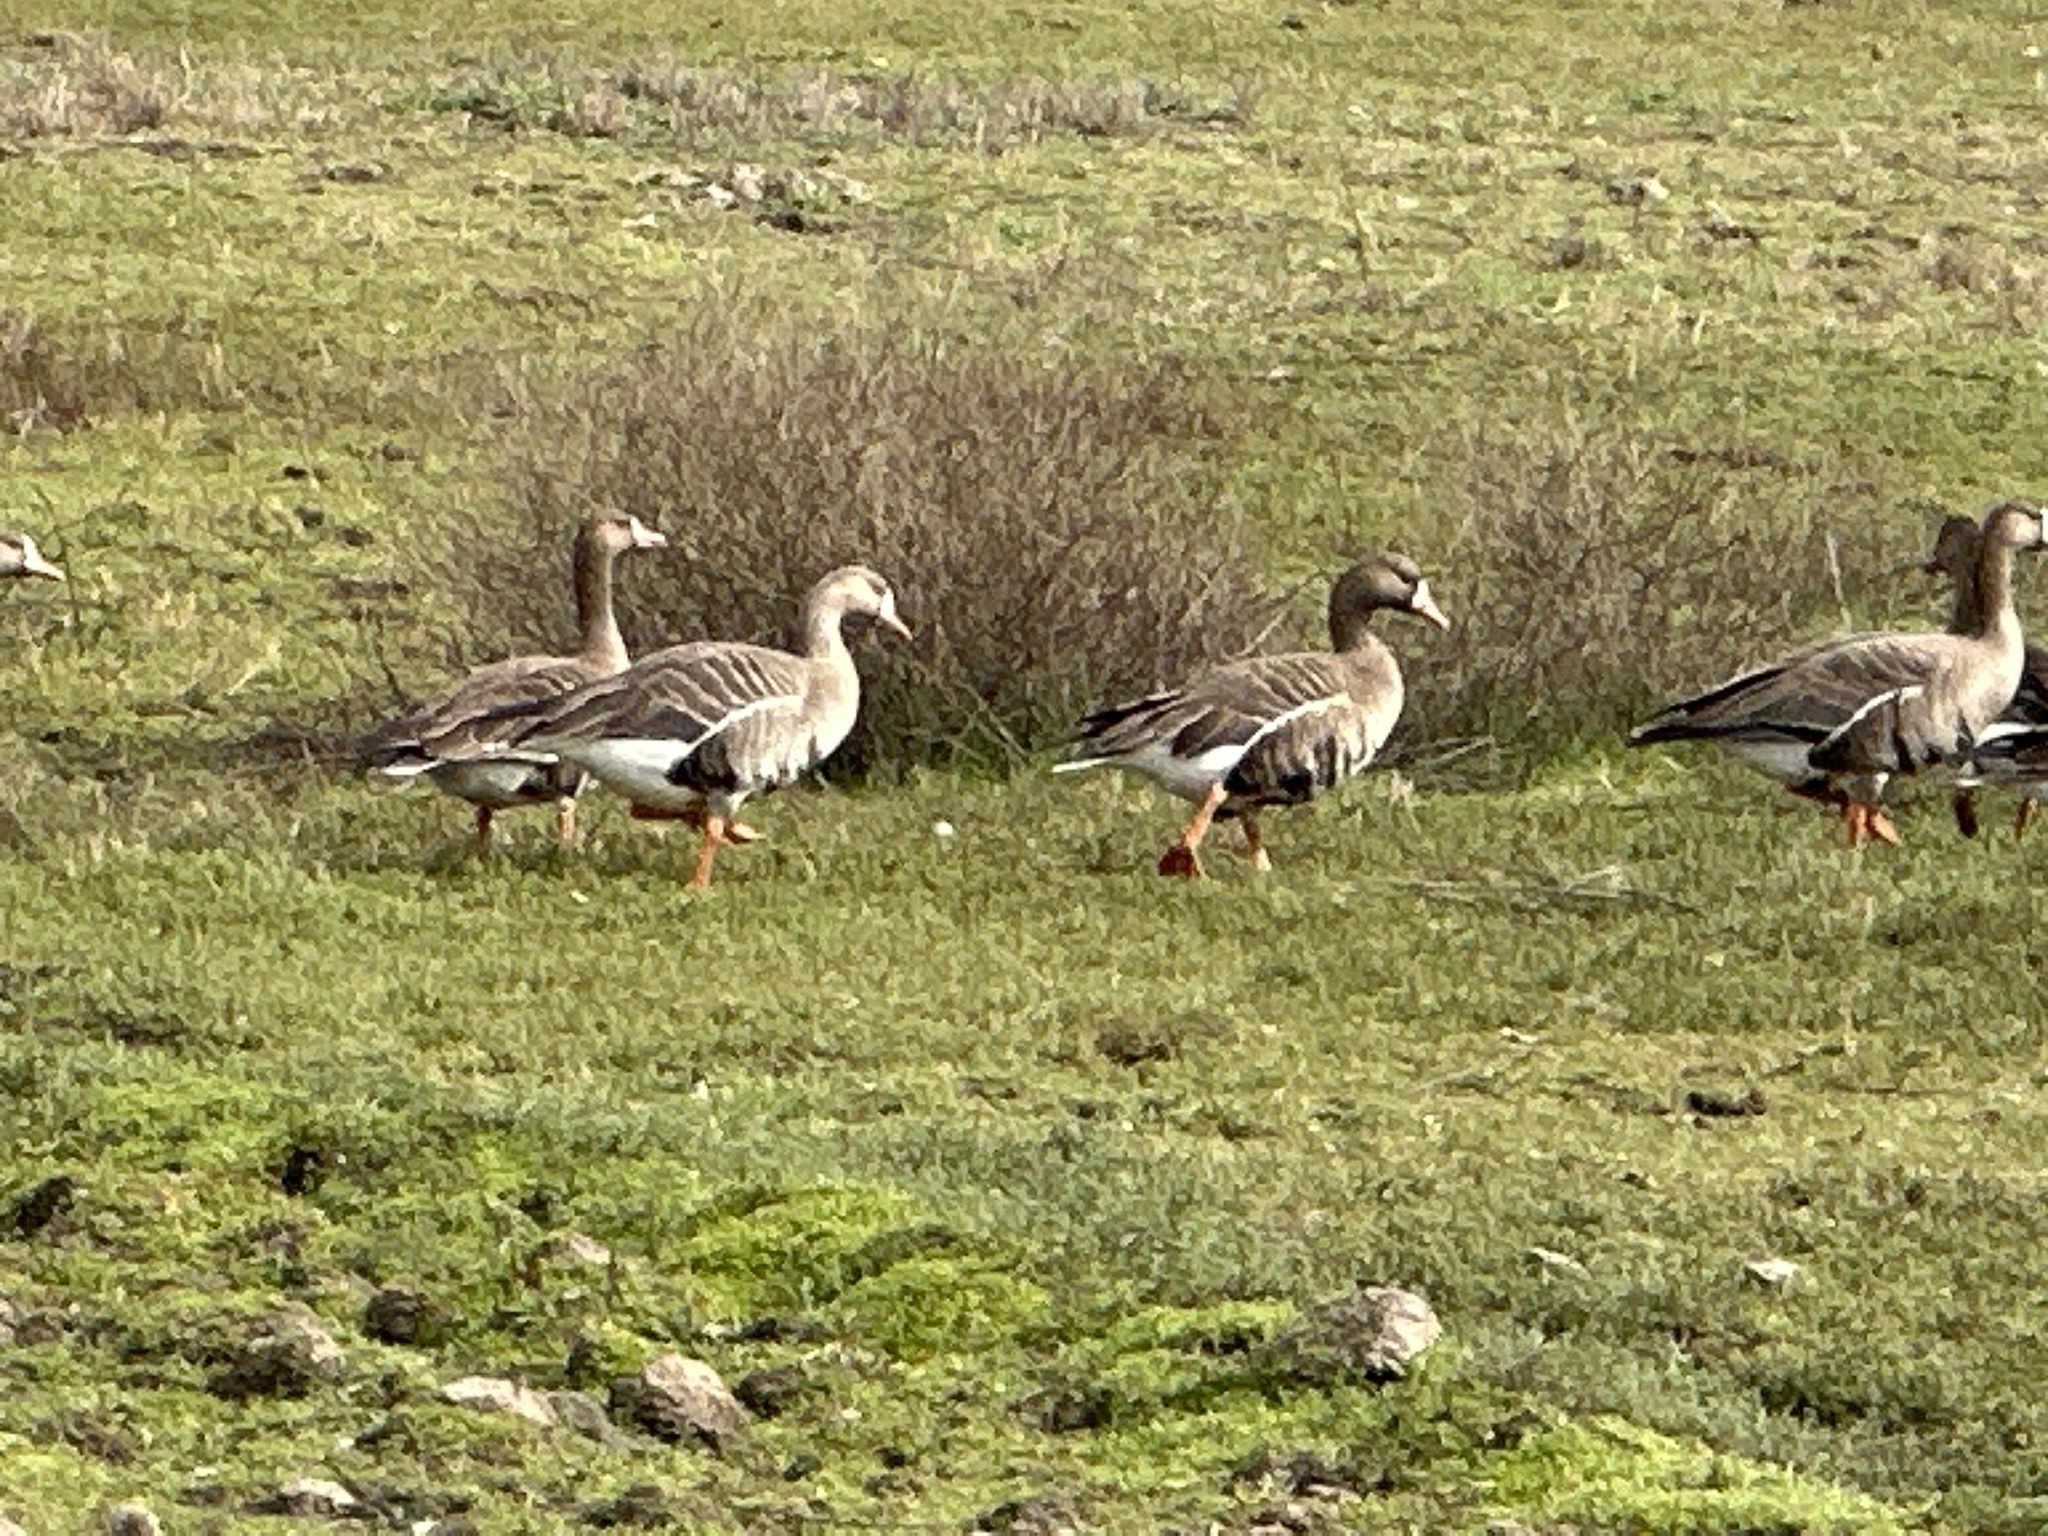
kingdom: Animalia
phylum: Chordata
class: Aves
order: Anseriformes
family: Anatidae
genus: Anser
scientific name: Anser albifrons
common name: Greater white-fronted goose
